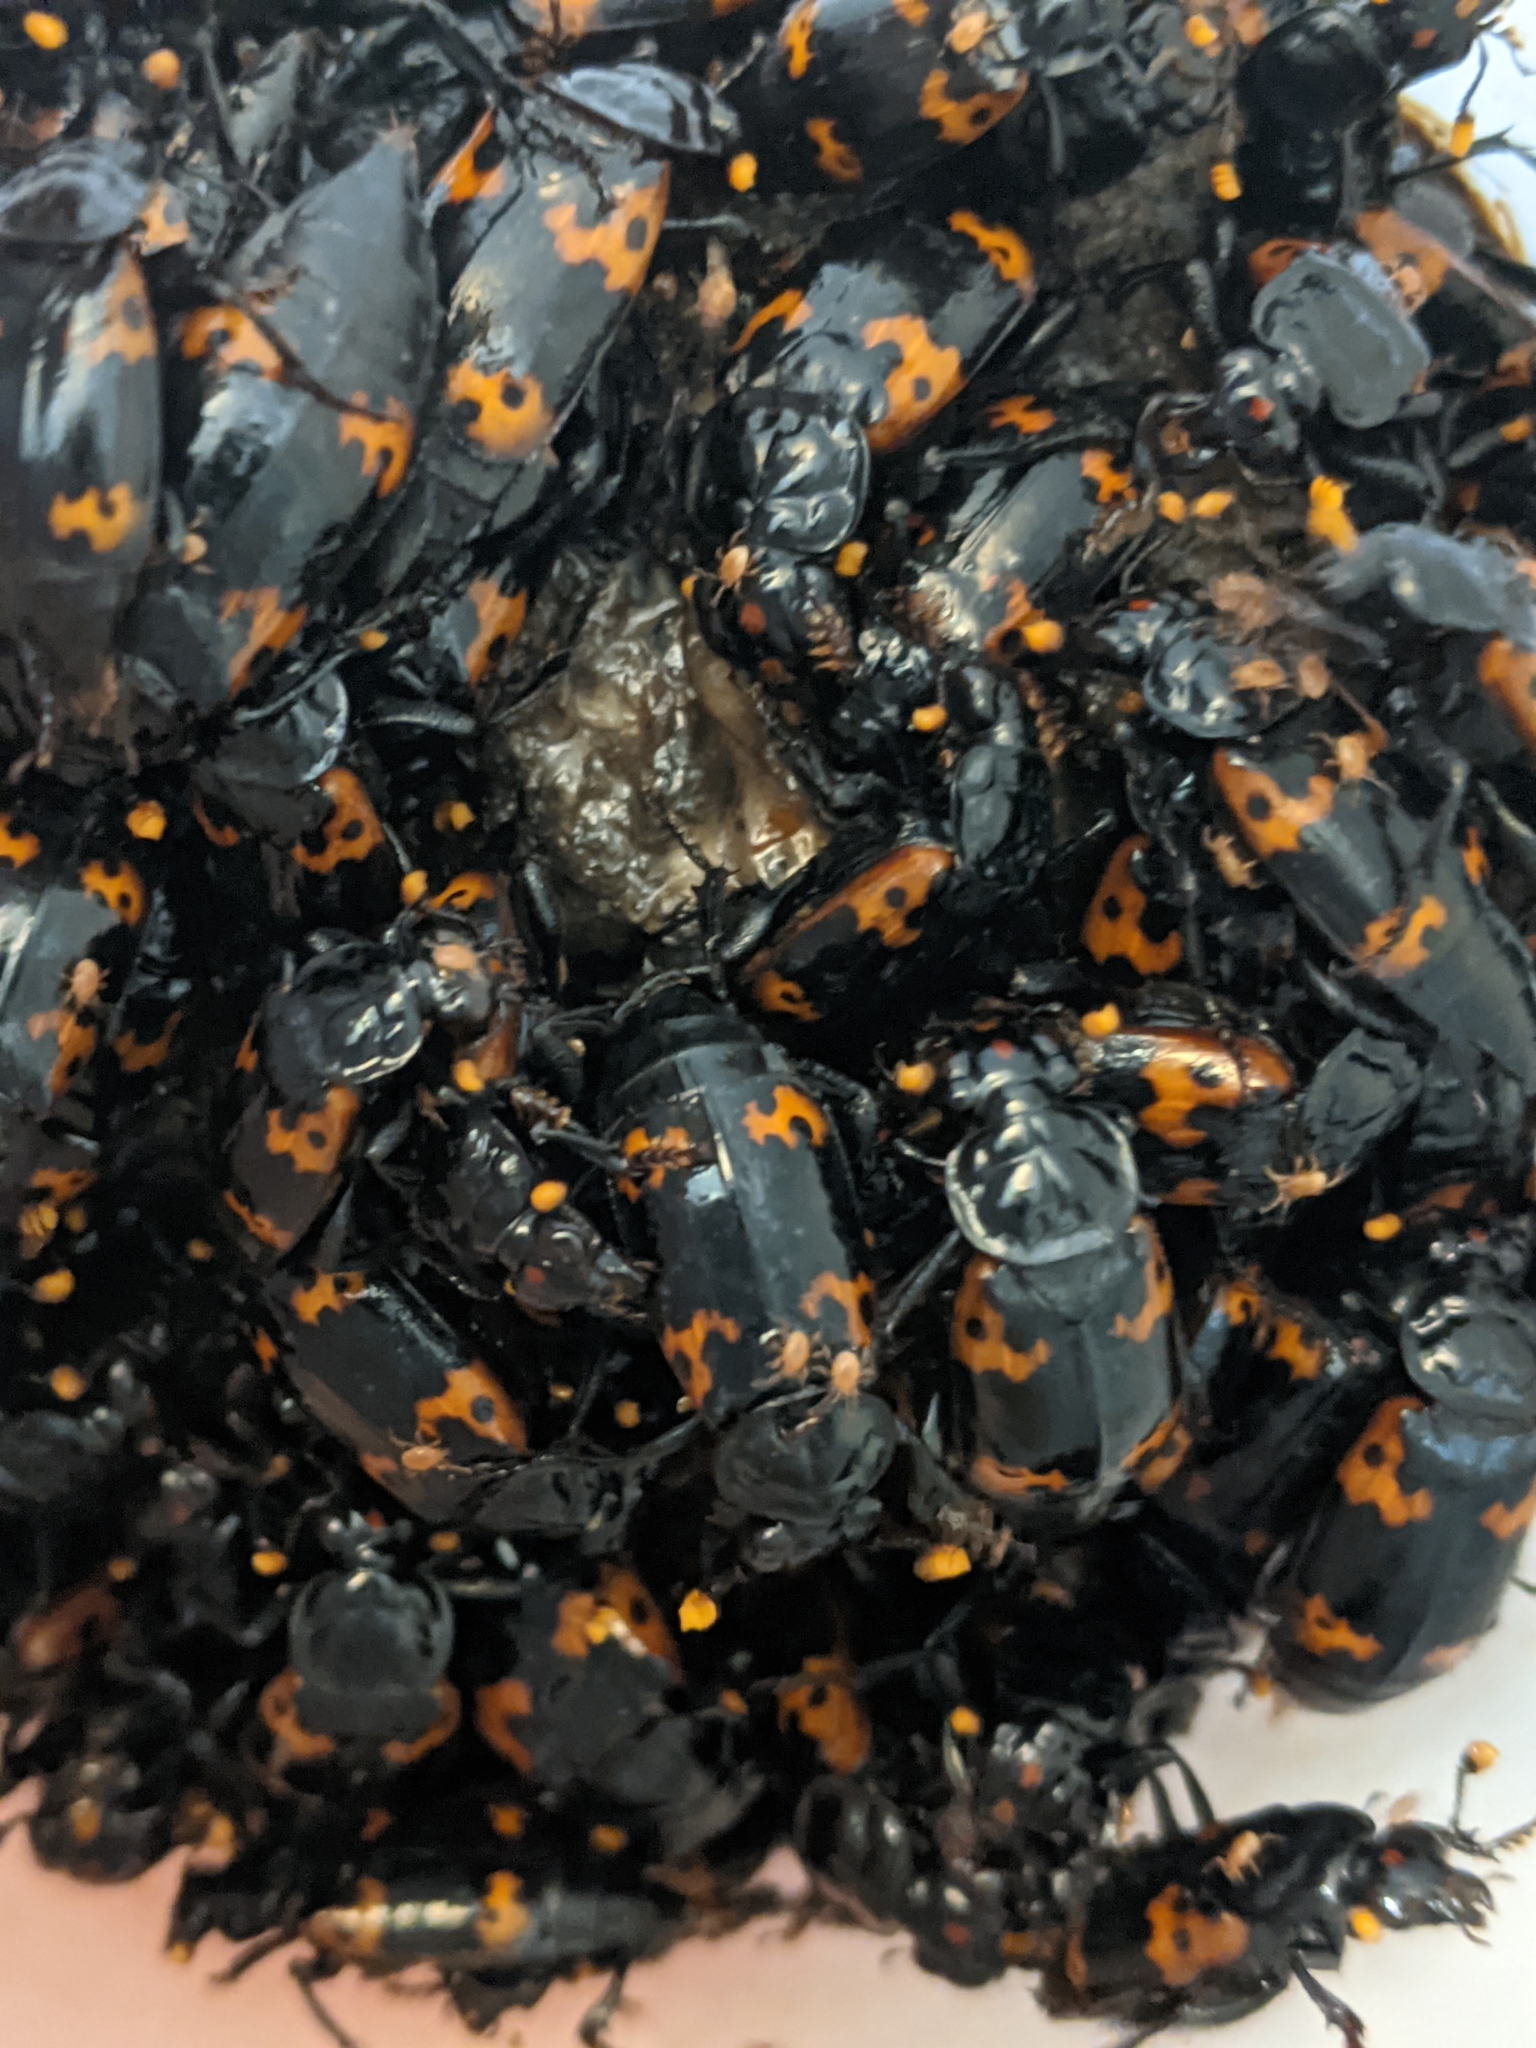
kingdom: Animalia
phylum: Arthropoda
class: Insecta
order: Coleoptera
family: Staphylinidae
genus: Nicrophorus
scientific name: Nicrophorus nepalensis
